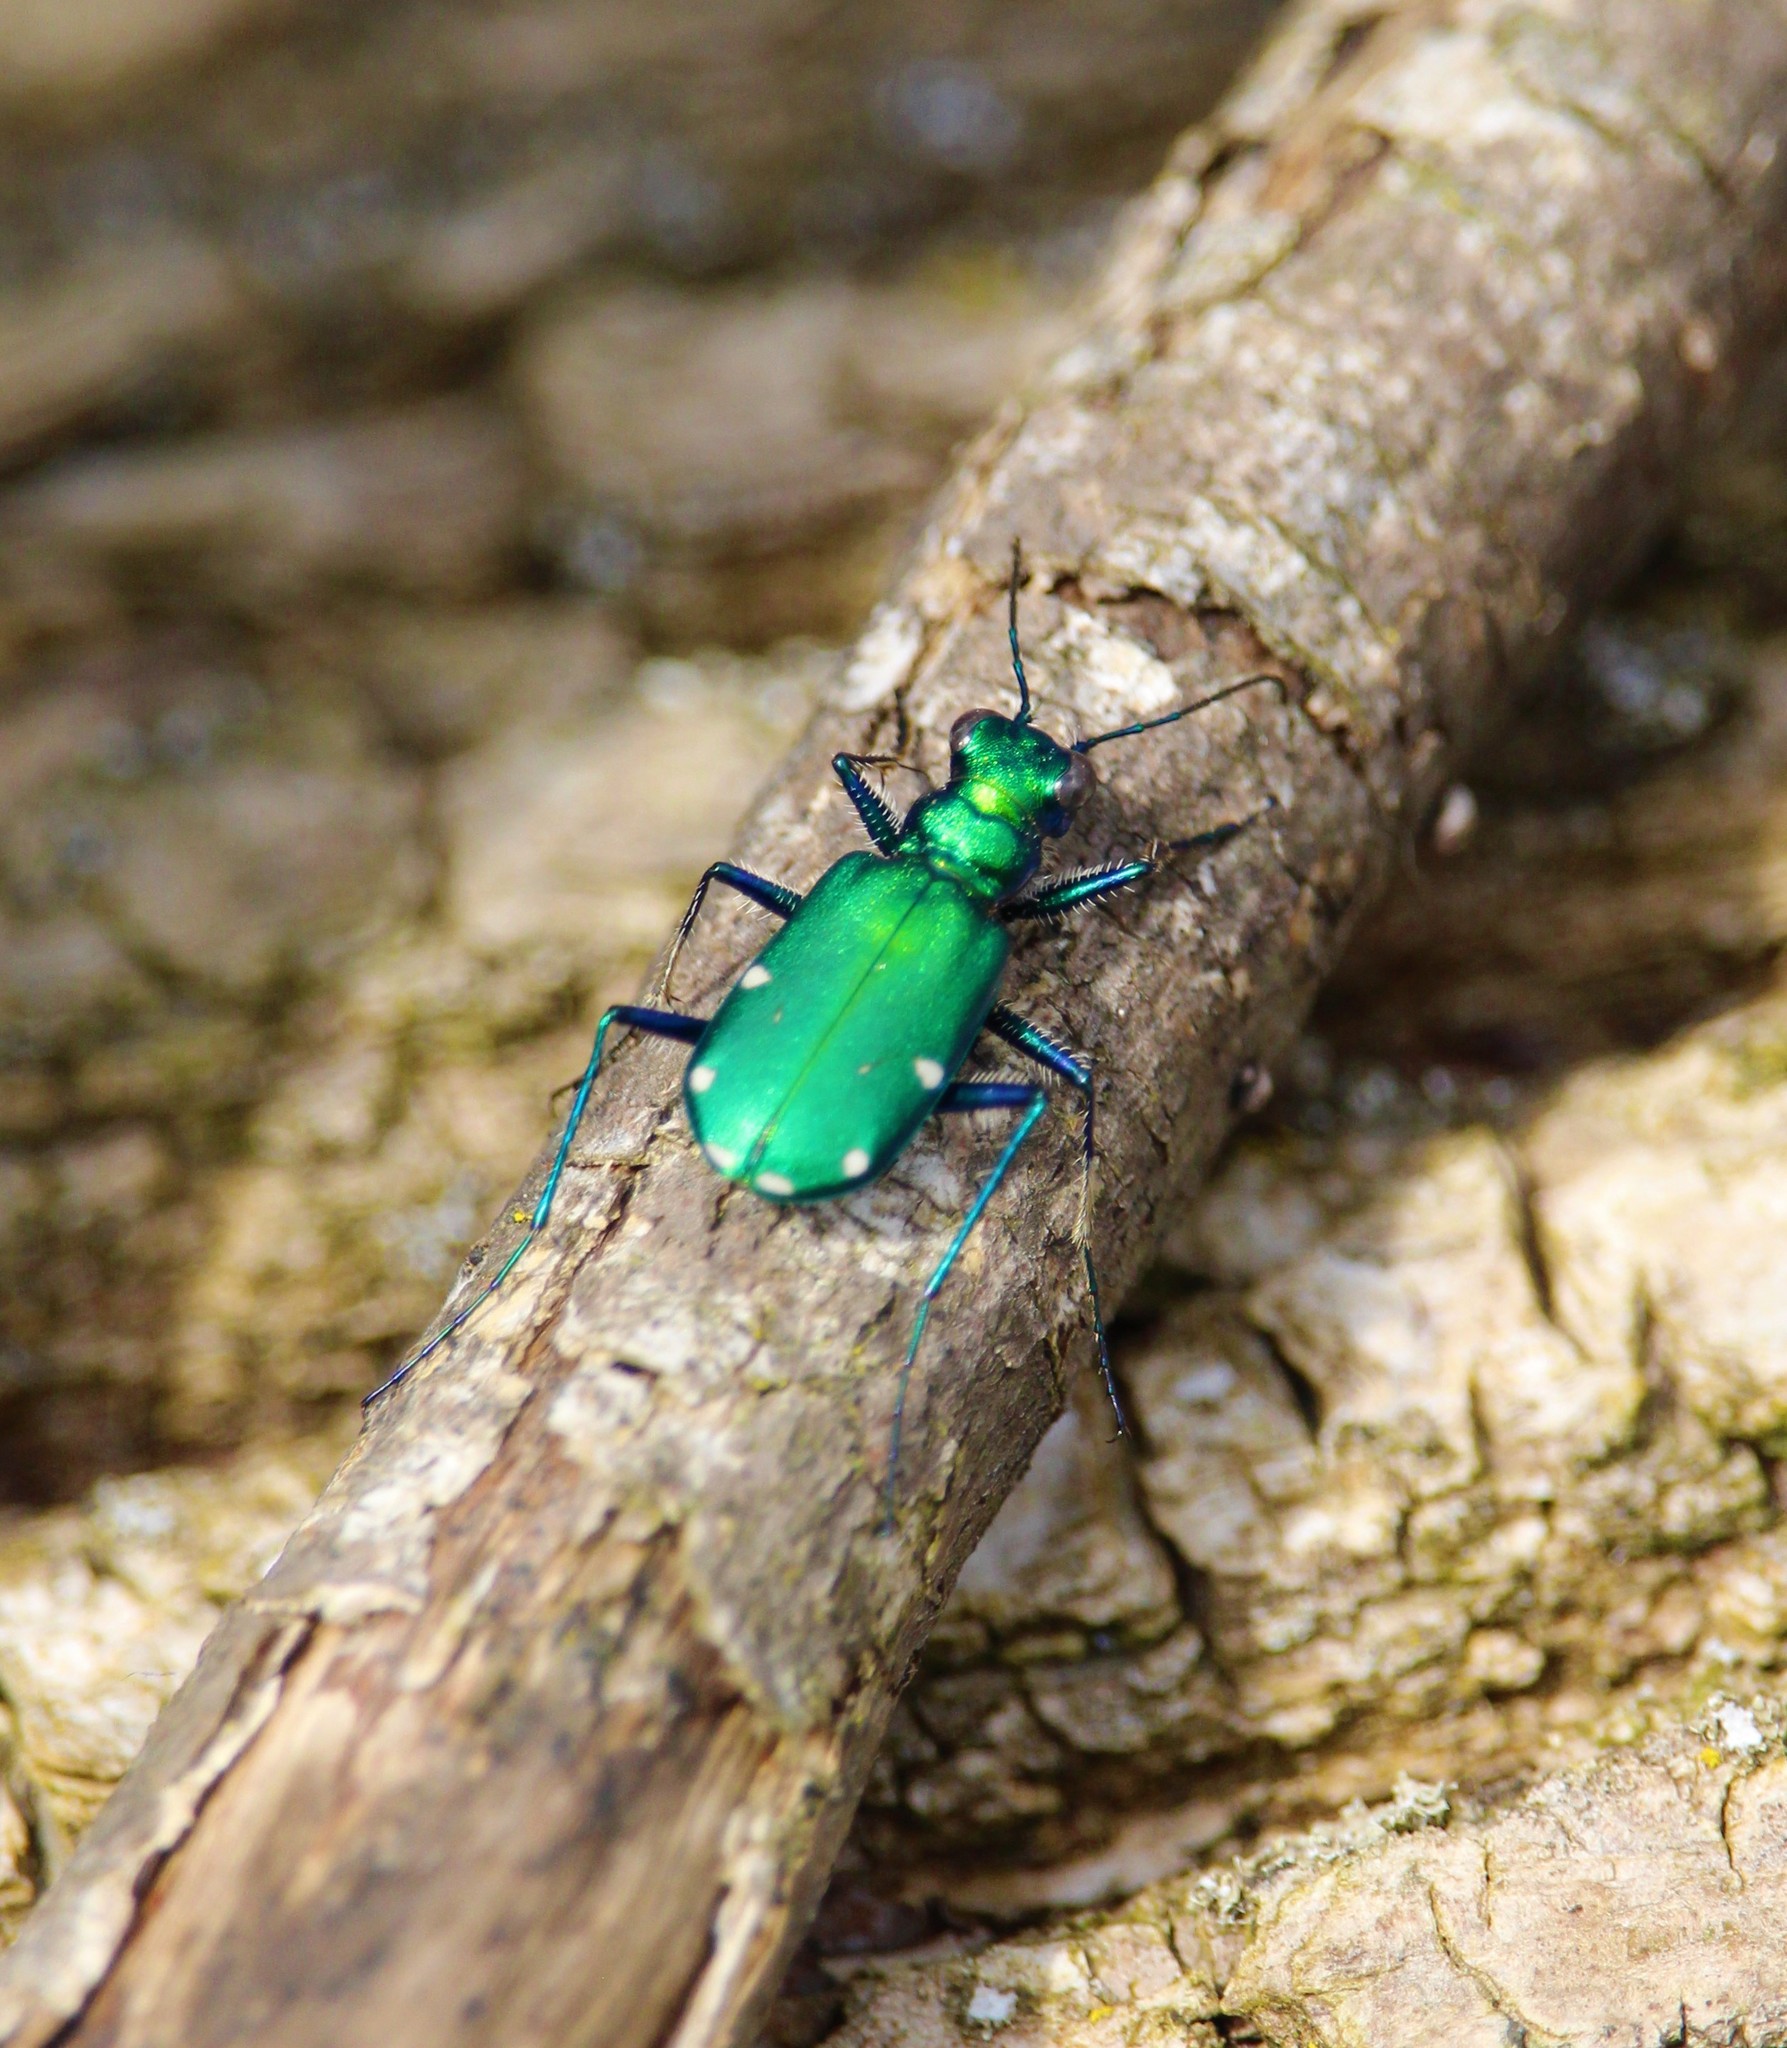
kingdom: Animalia
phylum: Arthropoda
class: Insecta
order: Coleoptera
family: Carabidae
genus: Cicindela
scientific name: Cicindela sexguttata
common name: Six-spotted tiger beetle
